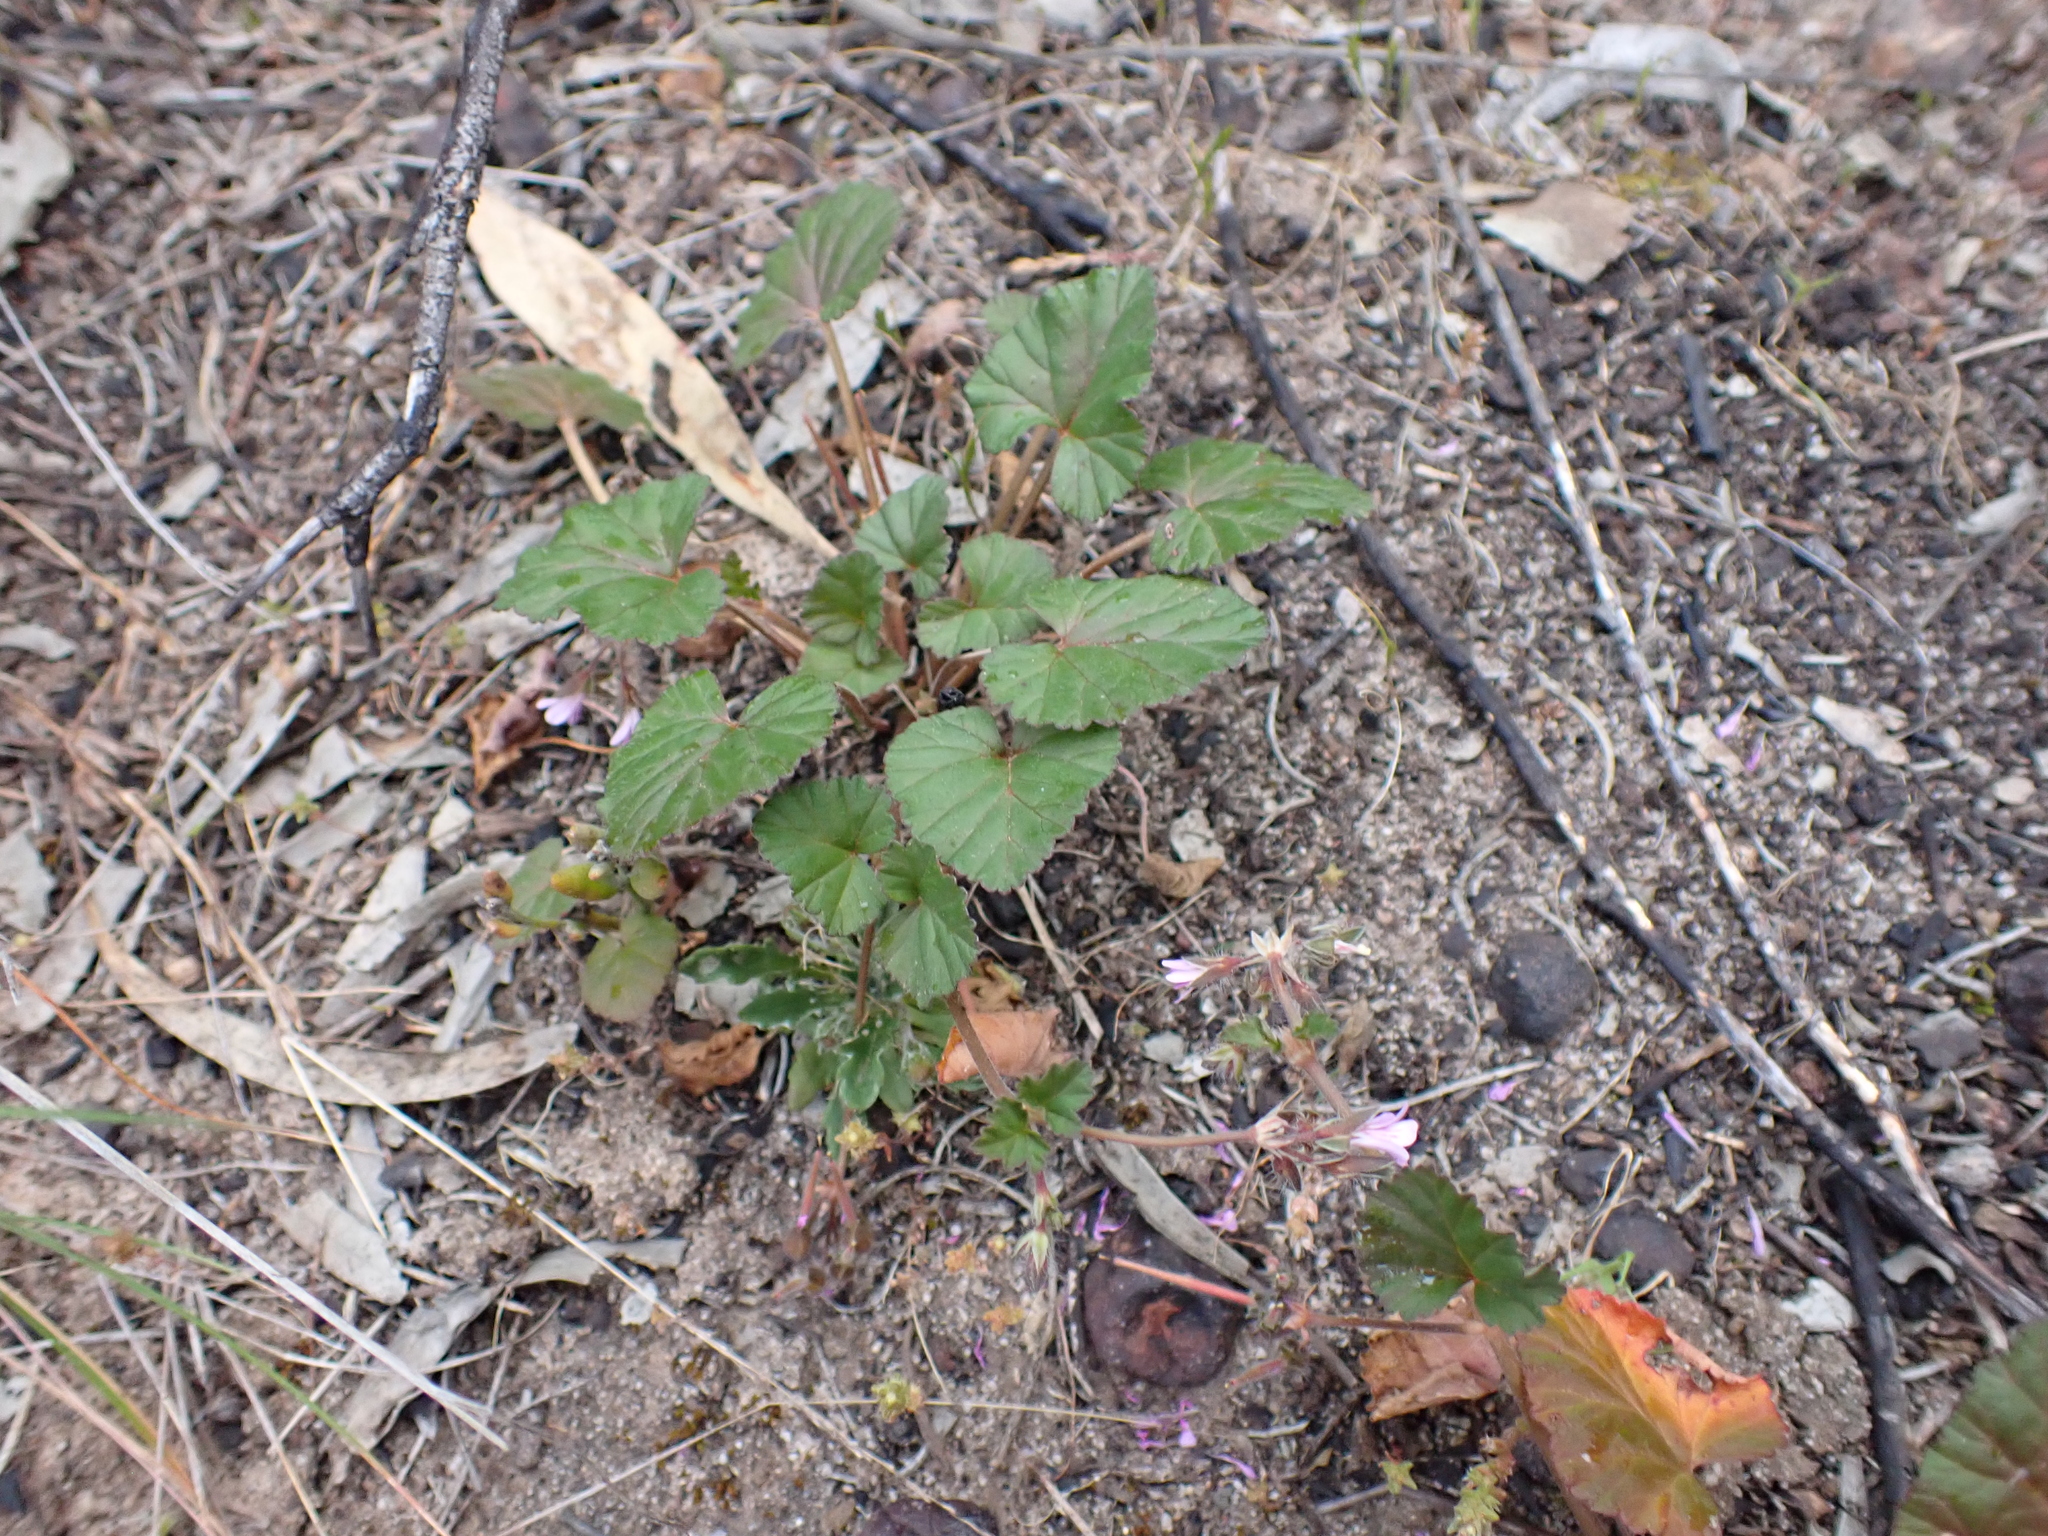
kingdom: Plantae
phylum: Tracheophyta
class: Magnoliopsida
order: Geraniales
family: Geraniaceae
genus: Pelargonium
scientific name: Pelargonium littorale
